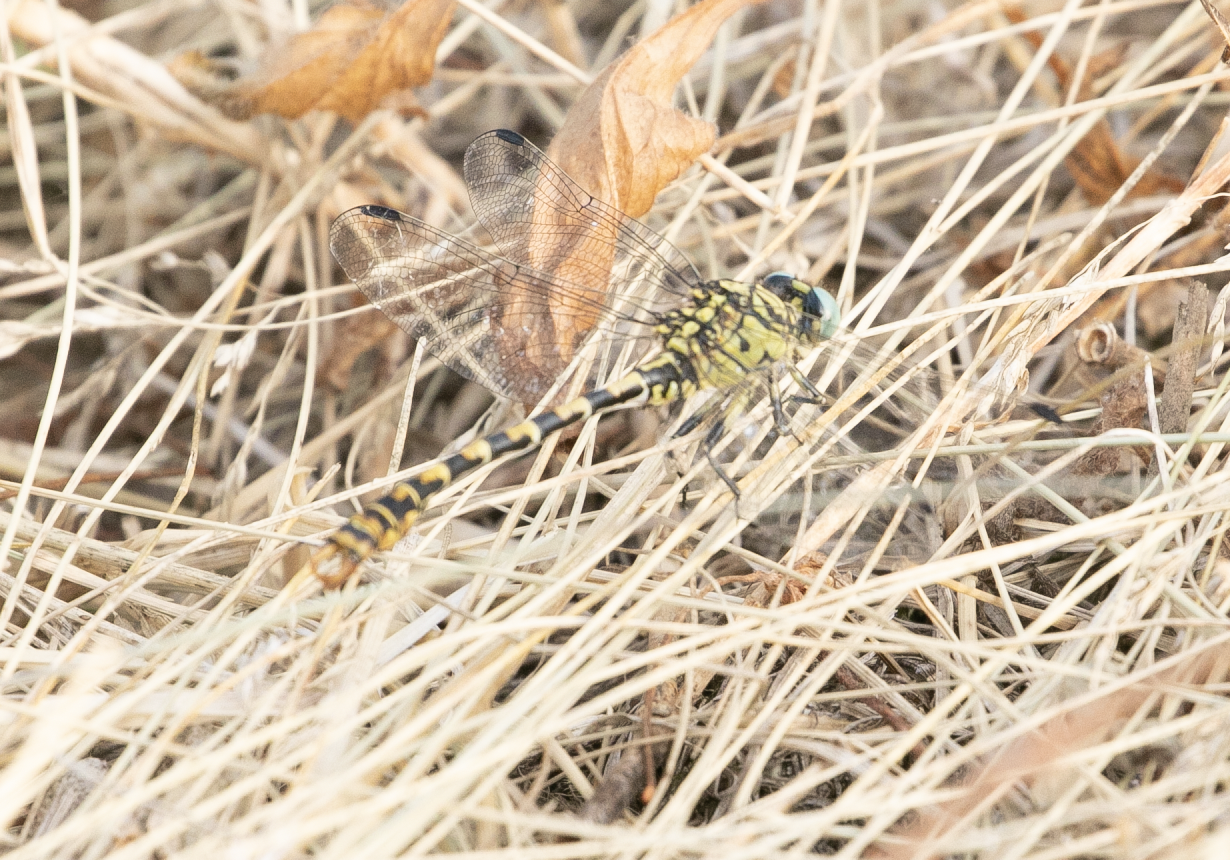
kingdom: Animalia
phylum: Arthropoda
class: Insecta
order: Odonata
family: Gomphidae
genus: Onychogomphus
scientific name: Onychogomphus forcipatus
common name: Small pincertail
